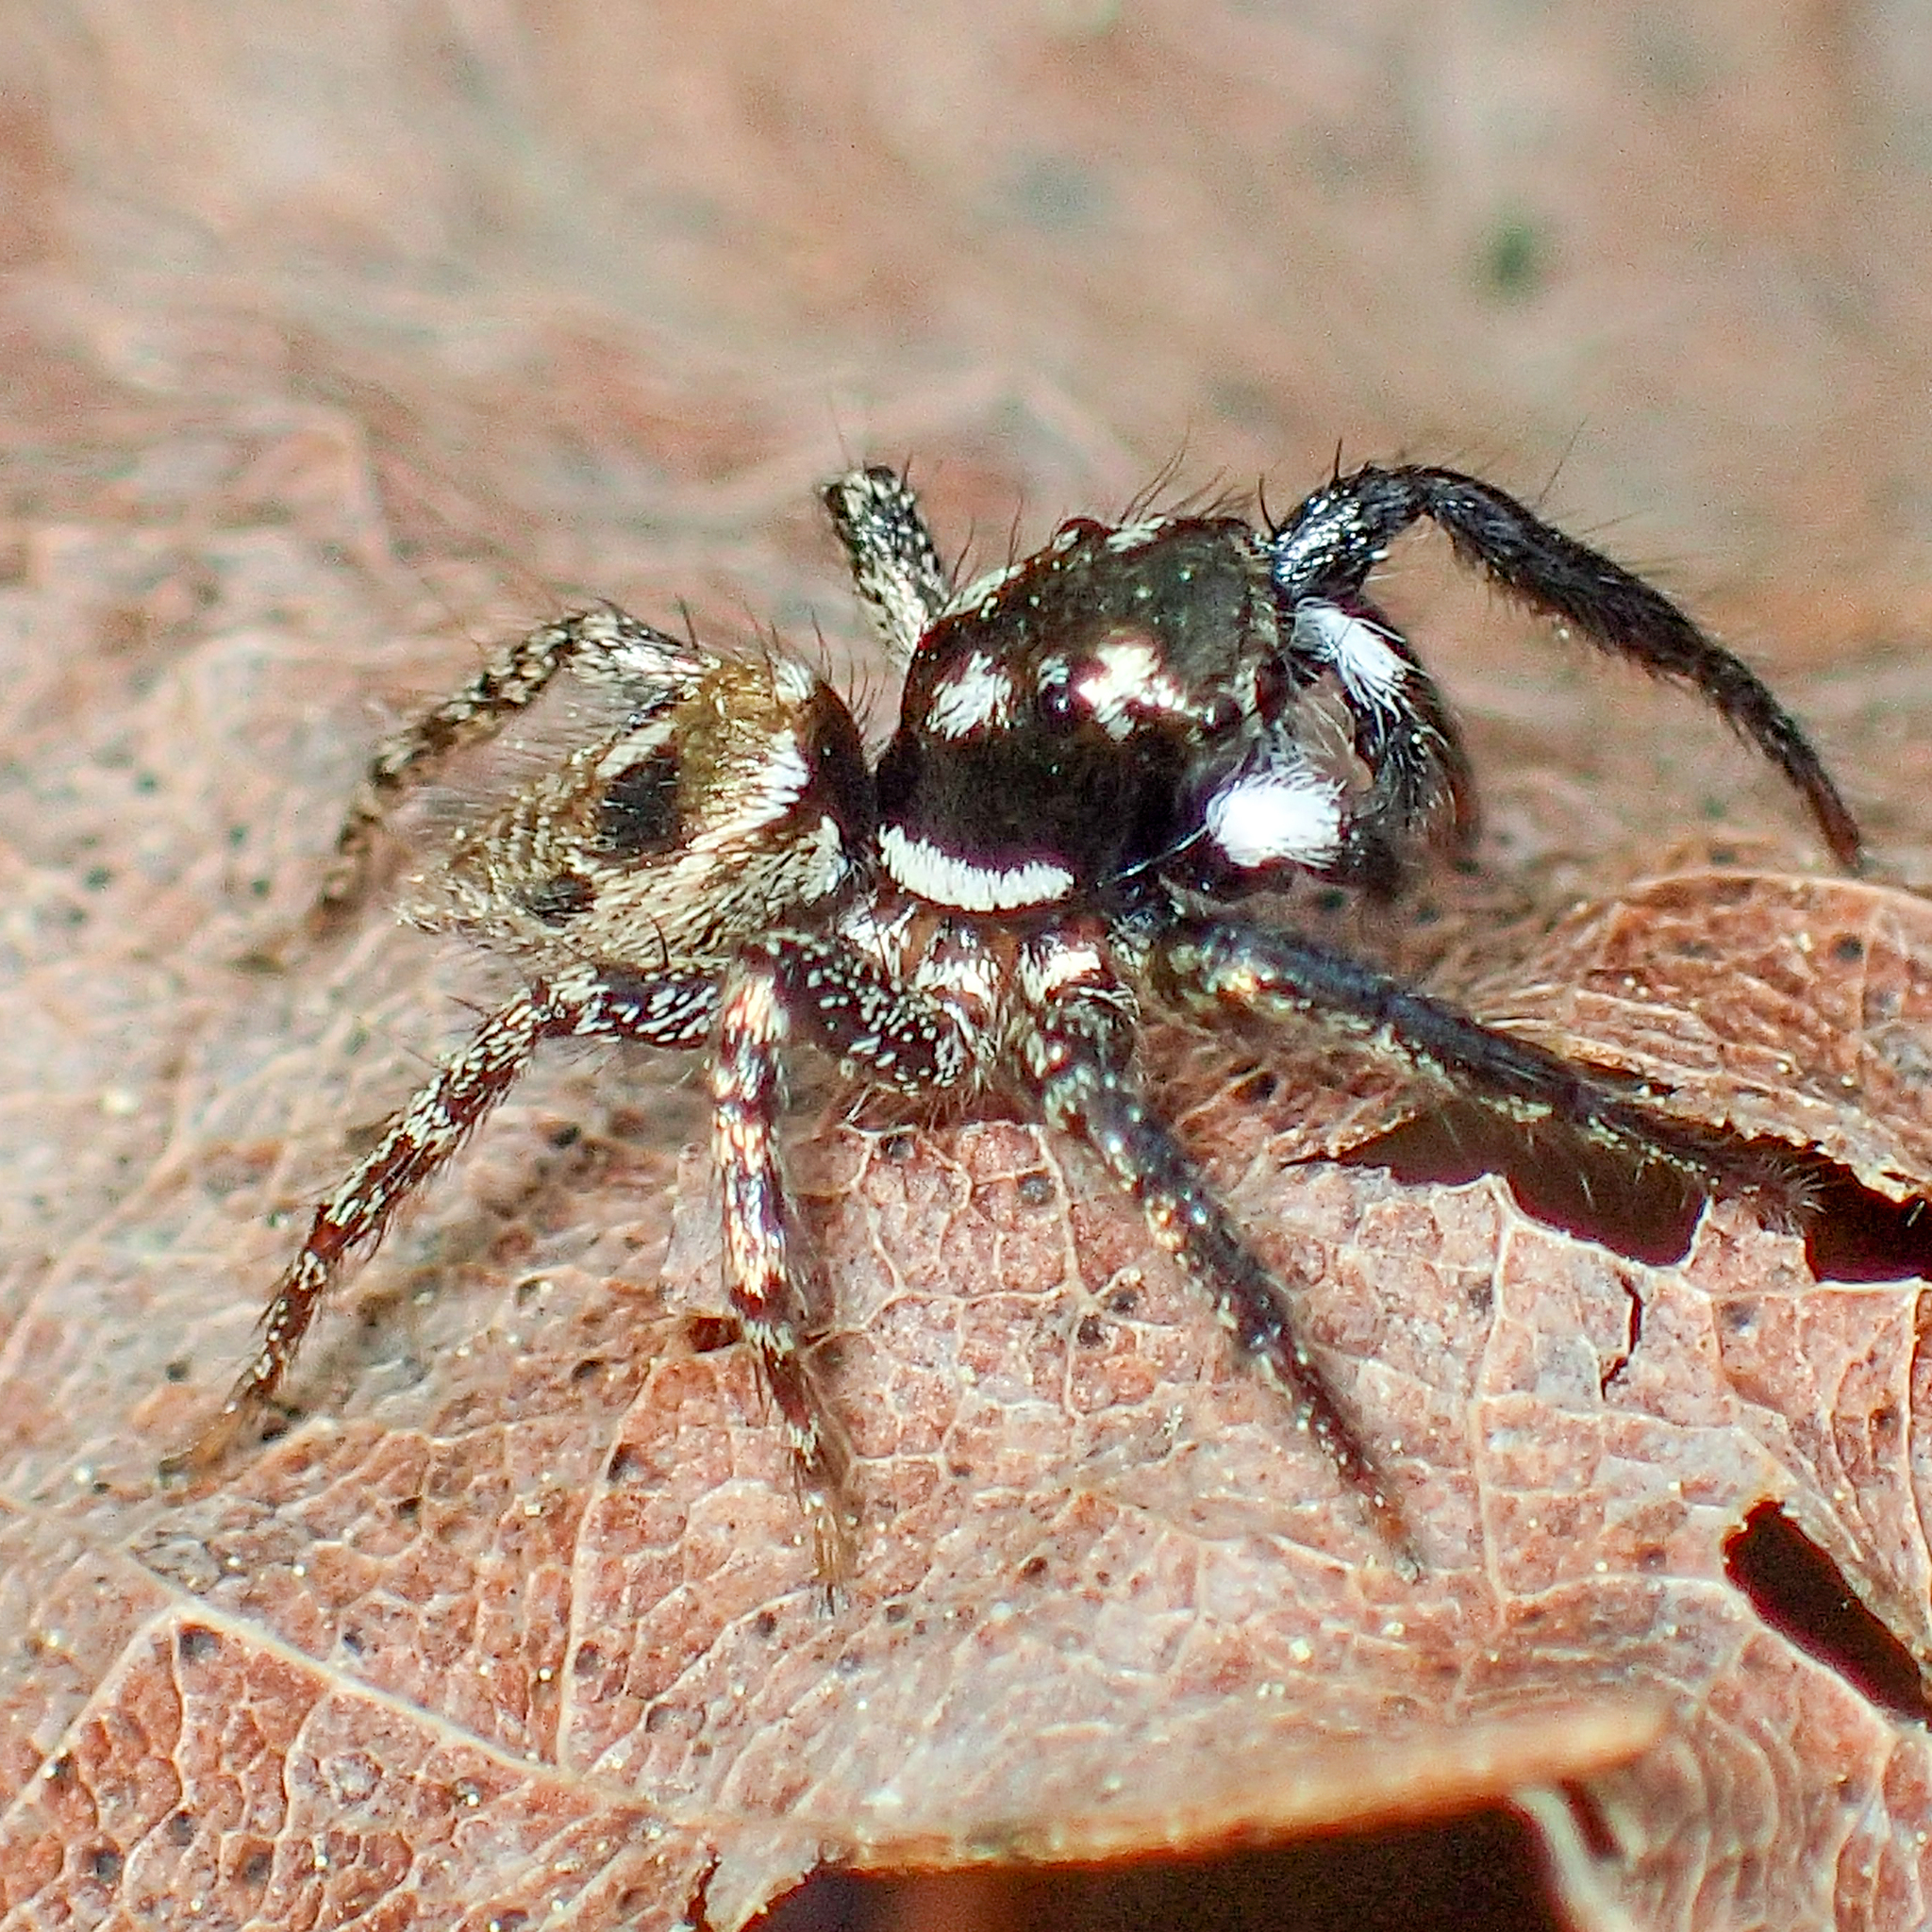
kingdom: Animalia
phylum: Arthropoda
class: Arachnida
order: Araneae
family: Salticidae
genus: Anasaitis
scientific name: Anasaitis canosa
